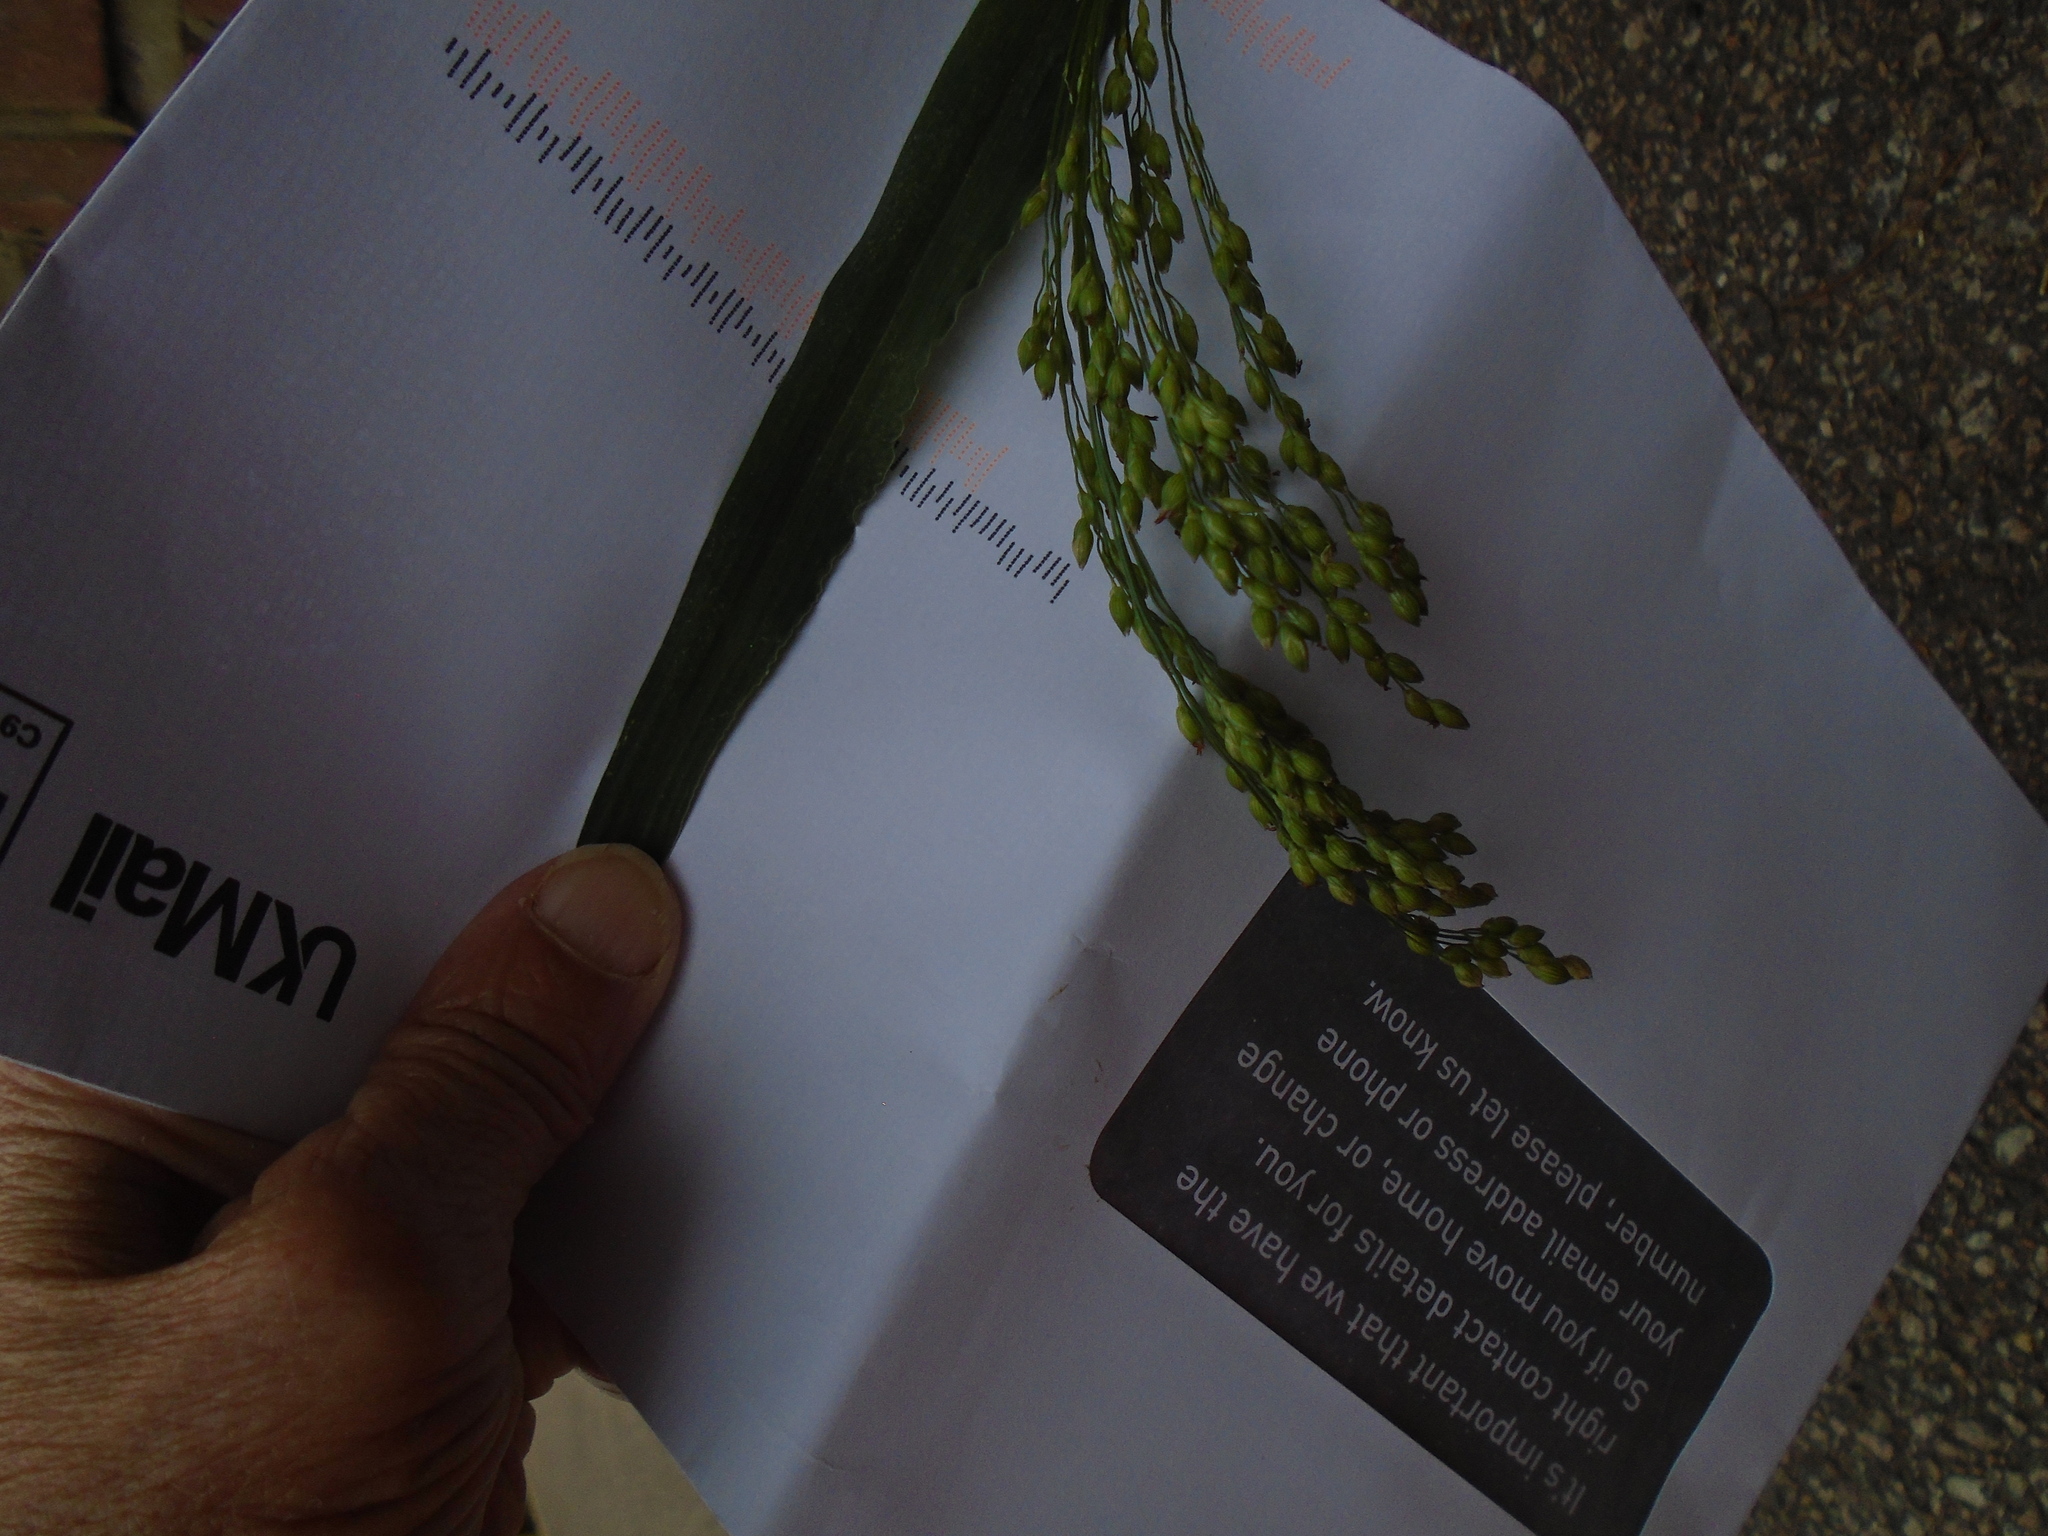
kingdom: Plantae
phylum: Tracheophyta
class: Liliopsida
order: Poales
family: Poaceae
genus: Panicum
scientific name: Panicum miliaceum
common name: Common millet
